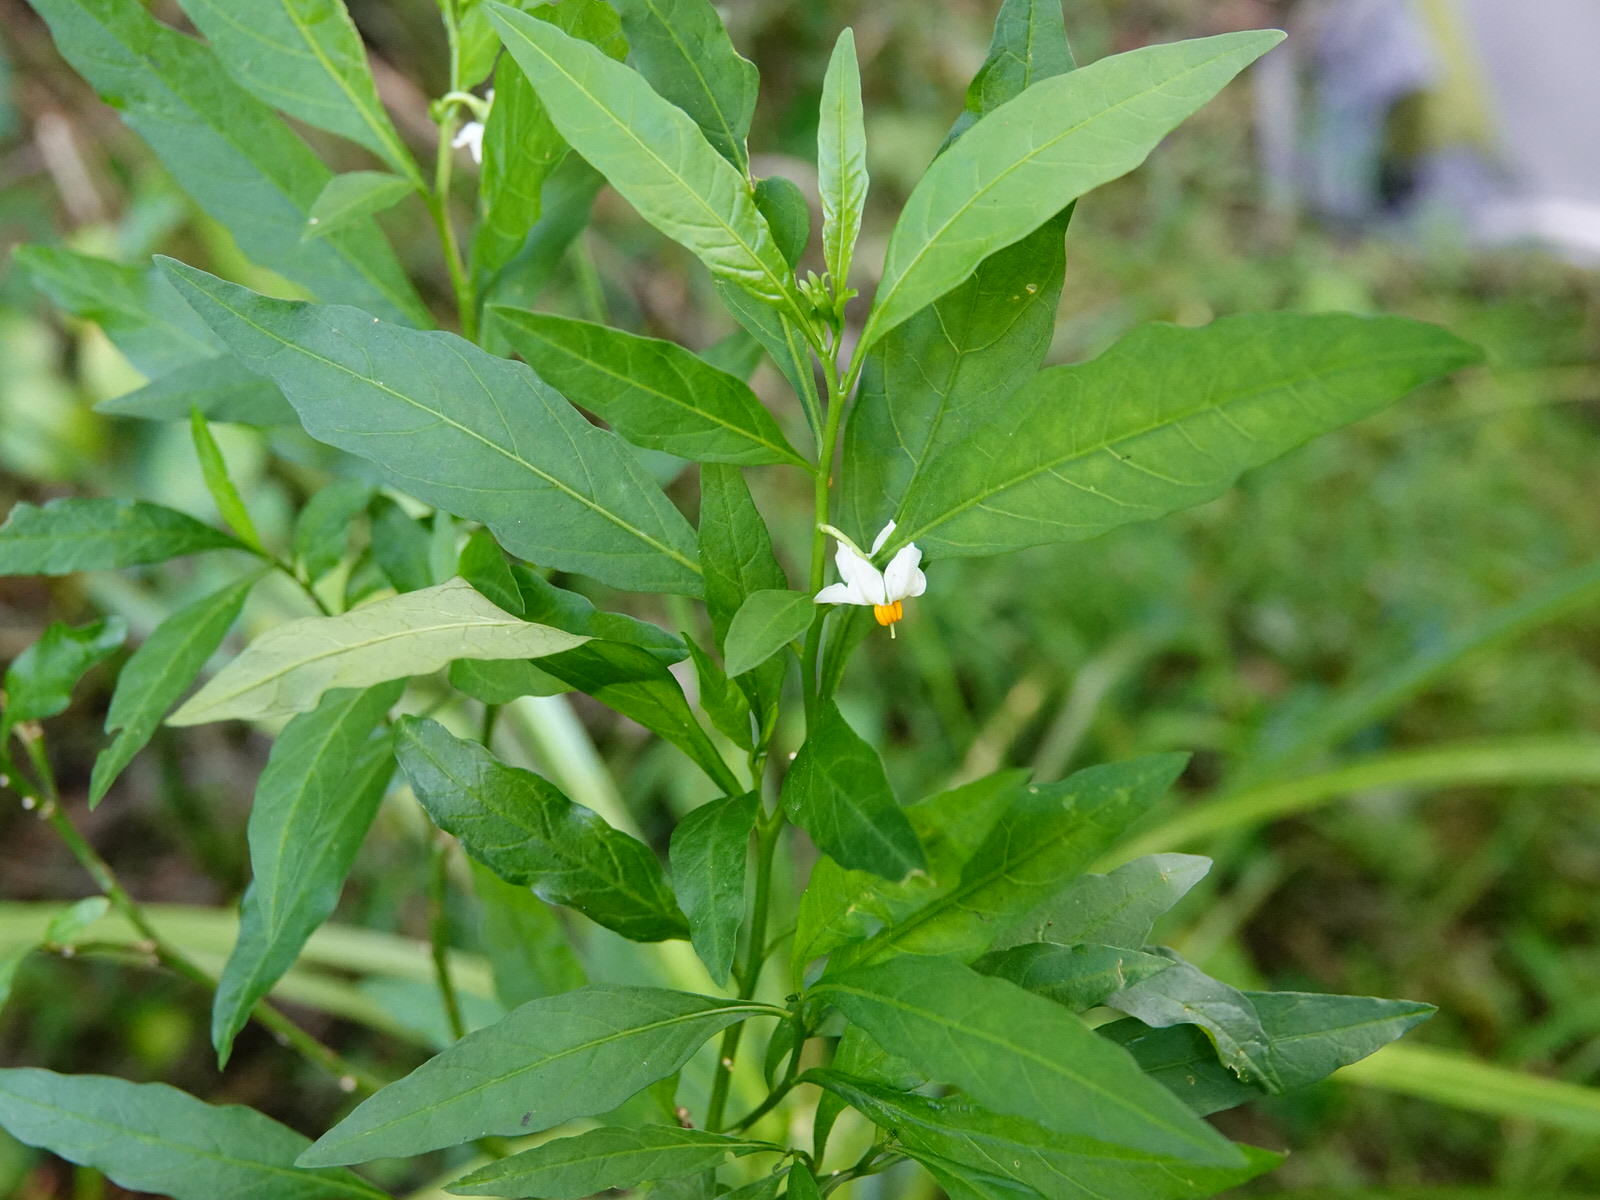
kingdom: Plantae
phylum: Tracheophyta
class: Magnoliopsida
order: Solanales
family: Solanaceae
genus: Solanum
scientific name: Solanum pseudocapsicum
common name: Jerusalem cherry
